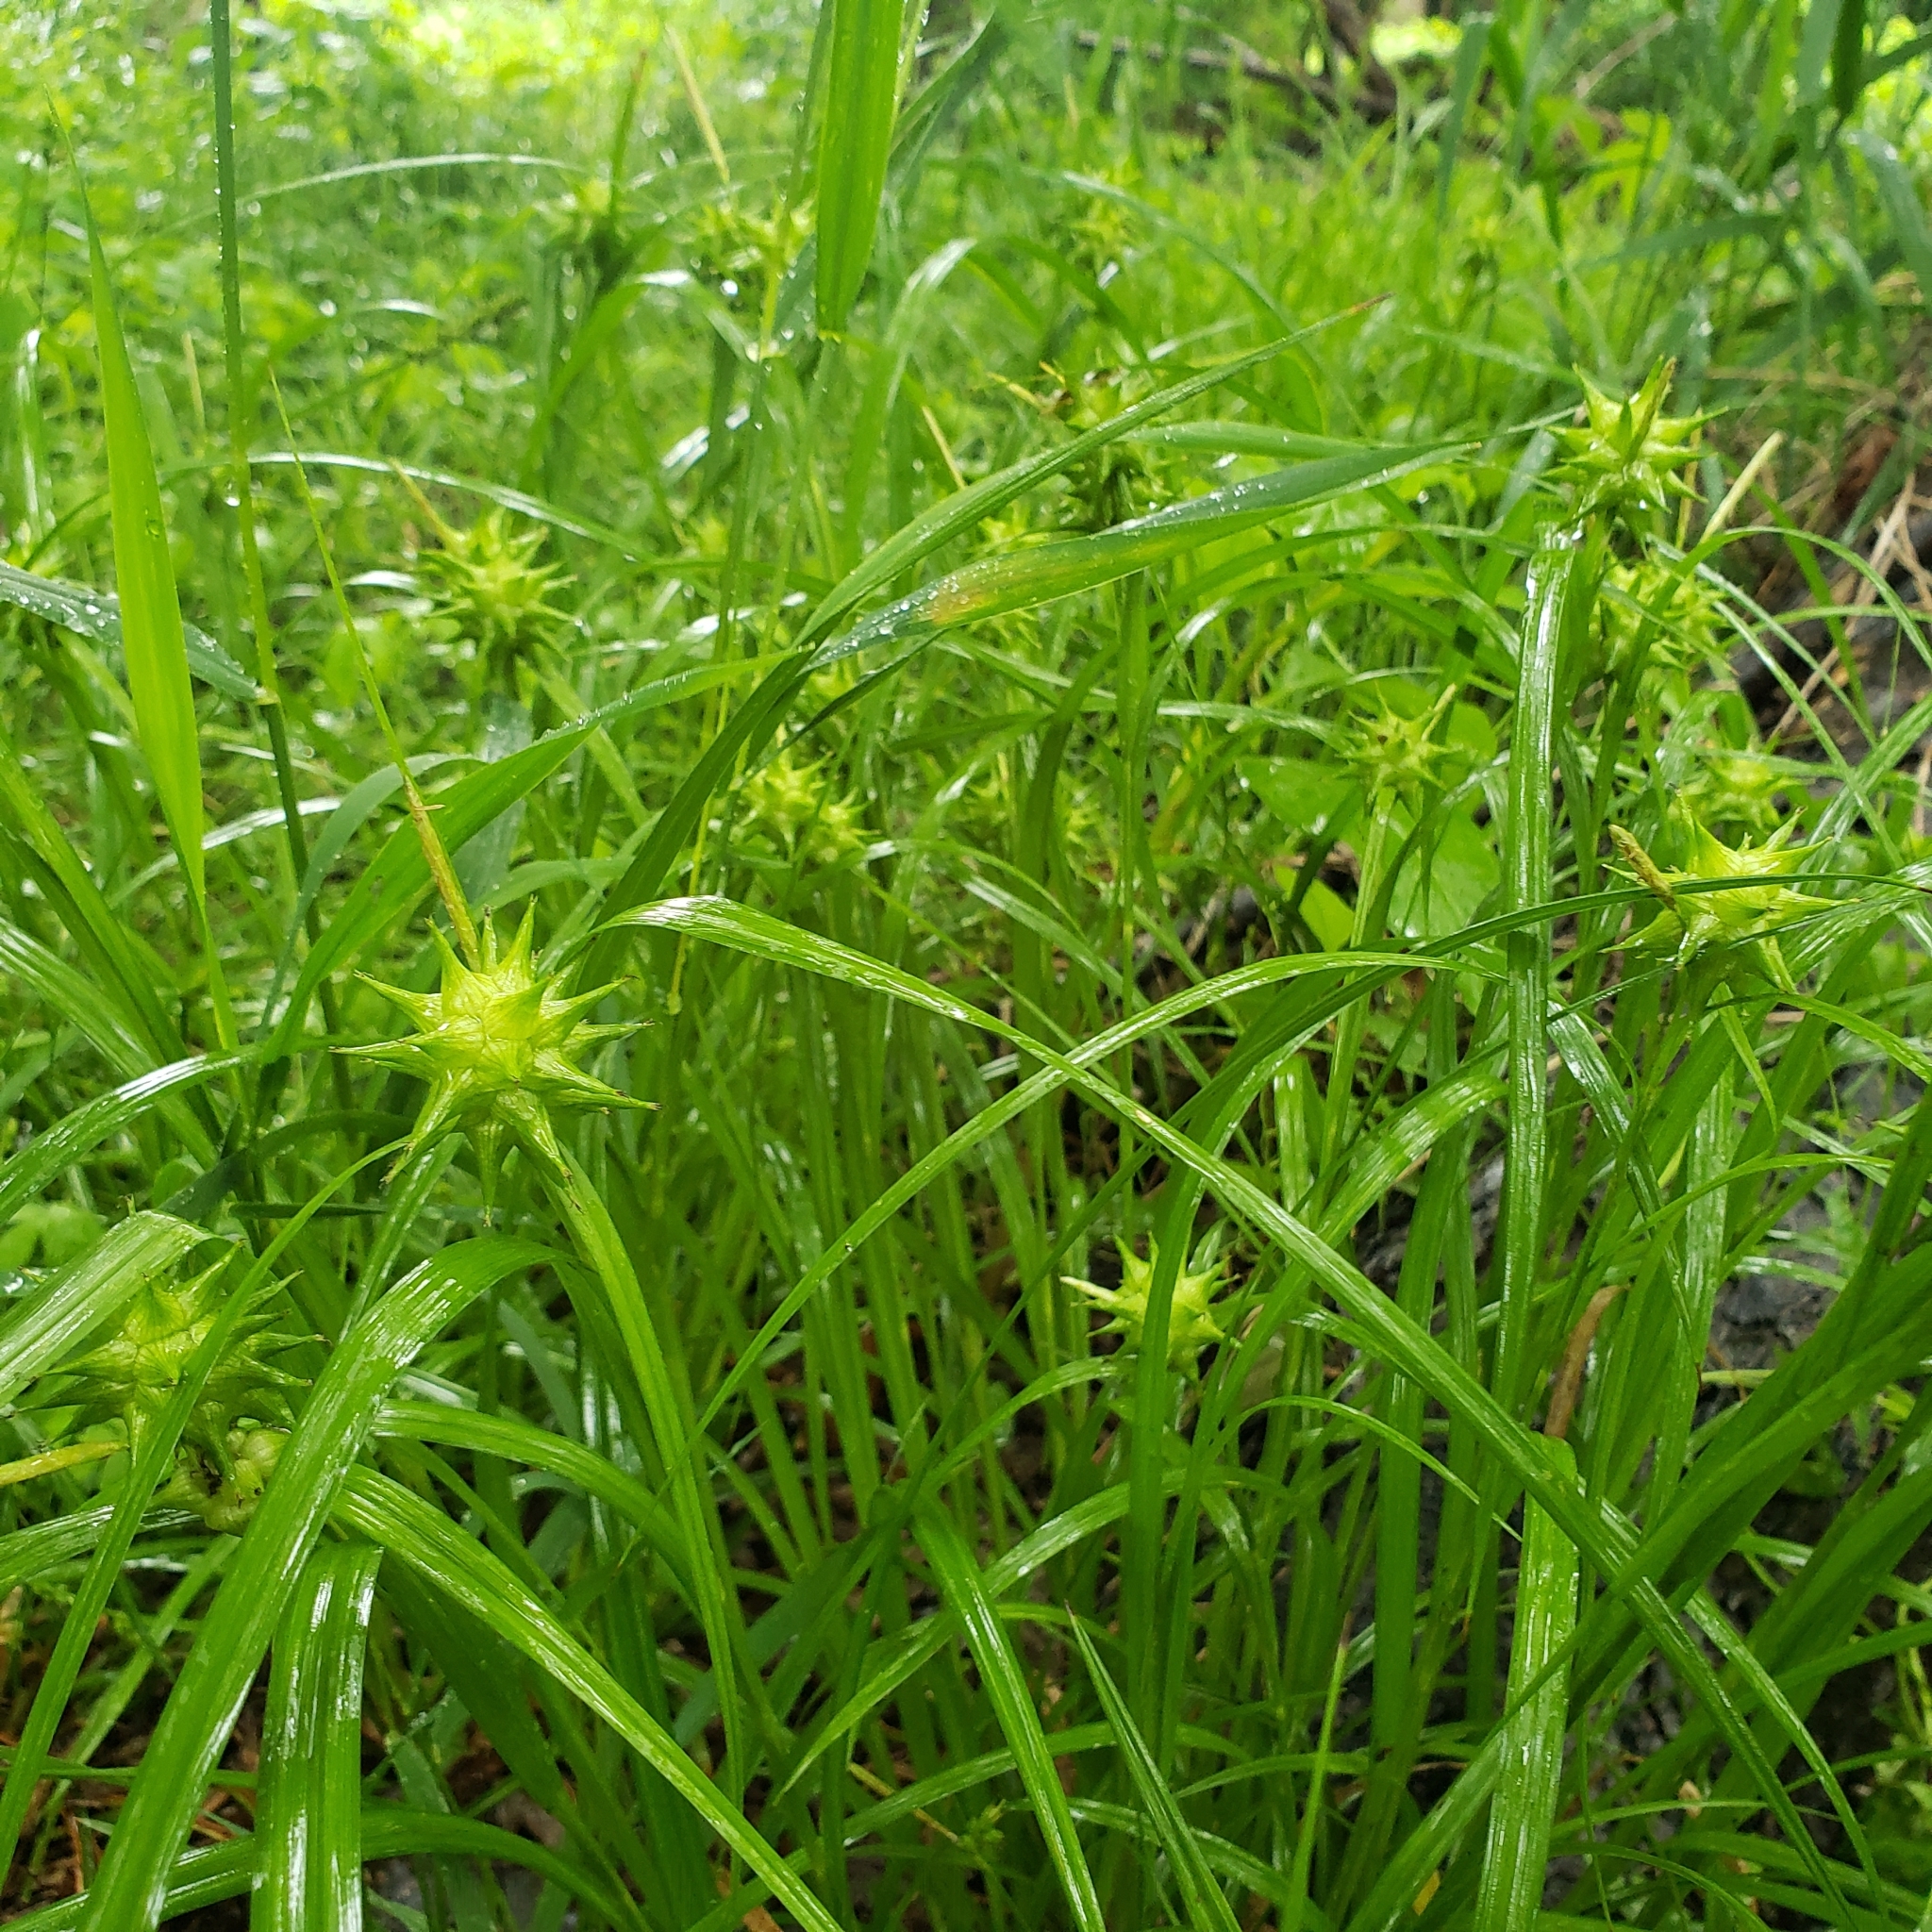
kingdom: Plantae
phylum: Tracheophyta
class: Liliopsida
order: Poales
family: Cyperaceae
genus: Carex
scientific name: Carex grayi
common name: Asa gray's sedge
